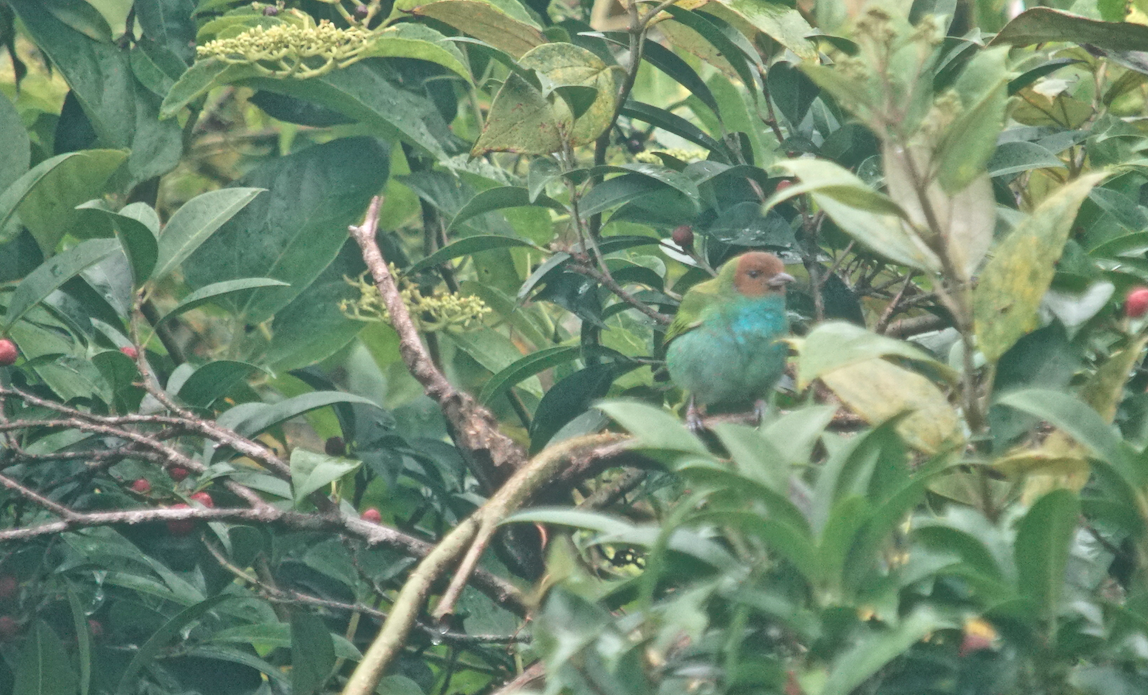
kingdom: Animalia
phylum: Chordata
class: Aves
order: Passeriformes
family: Thraupidae
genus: Tangara
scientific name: Tangara gyrola
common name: Bay-headed tanager
